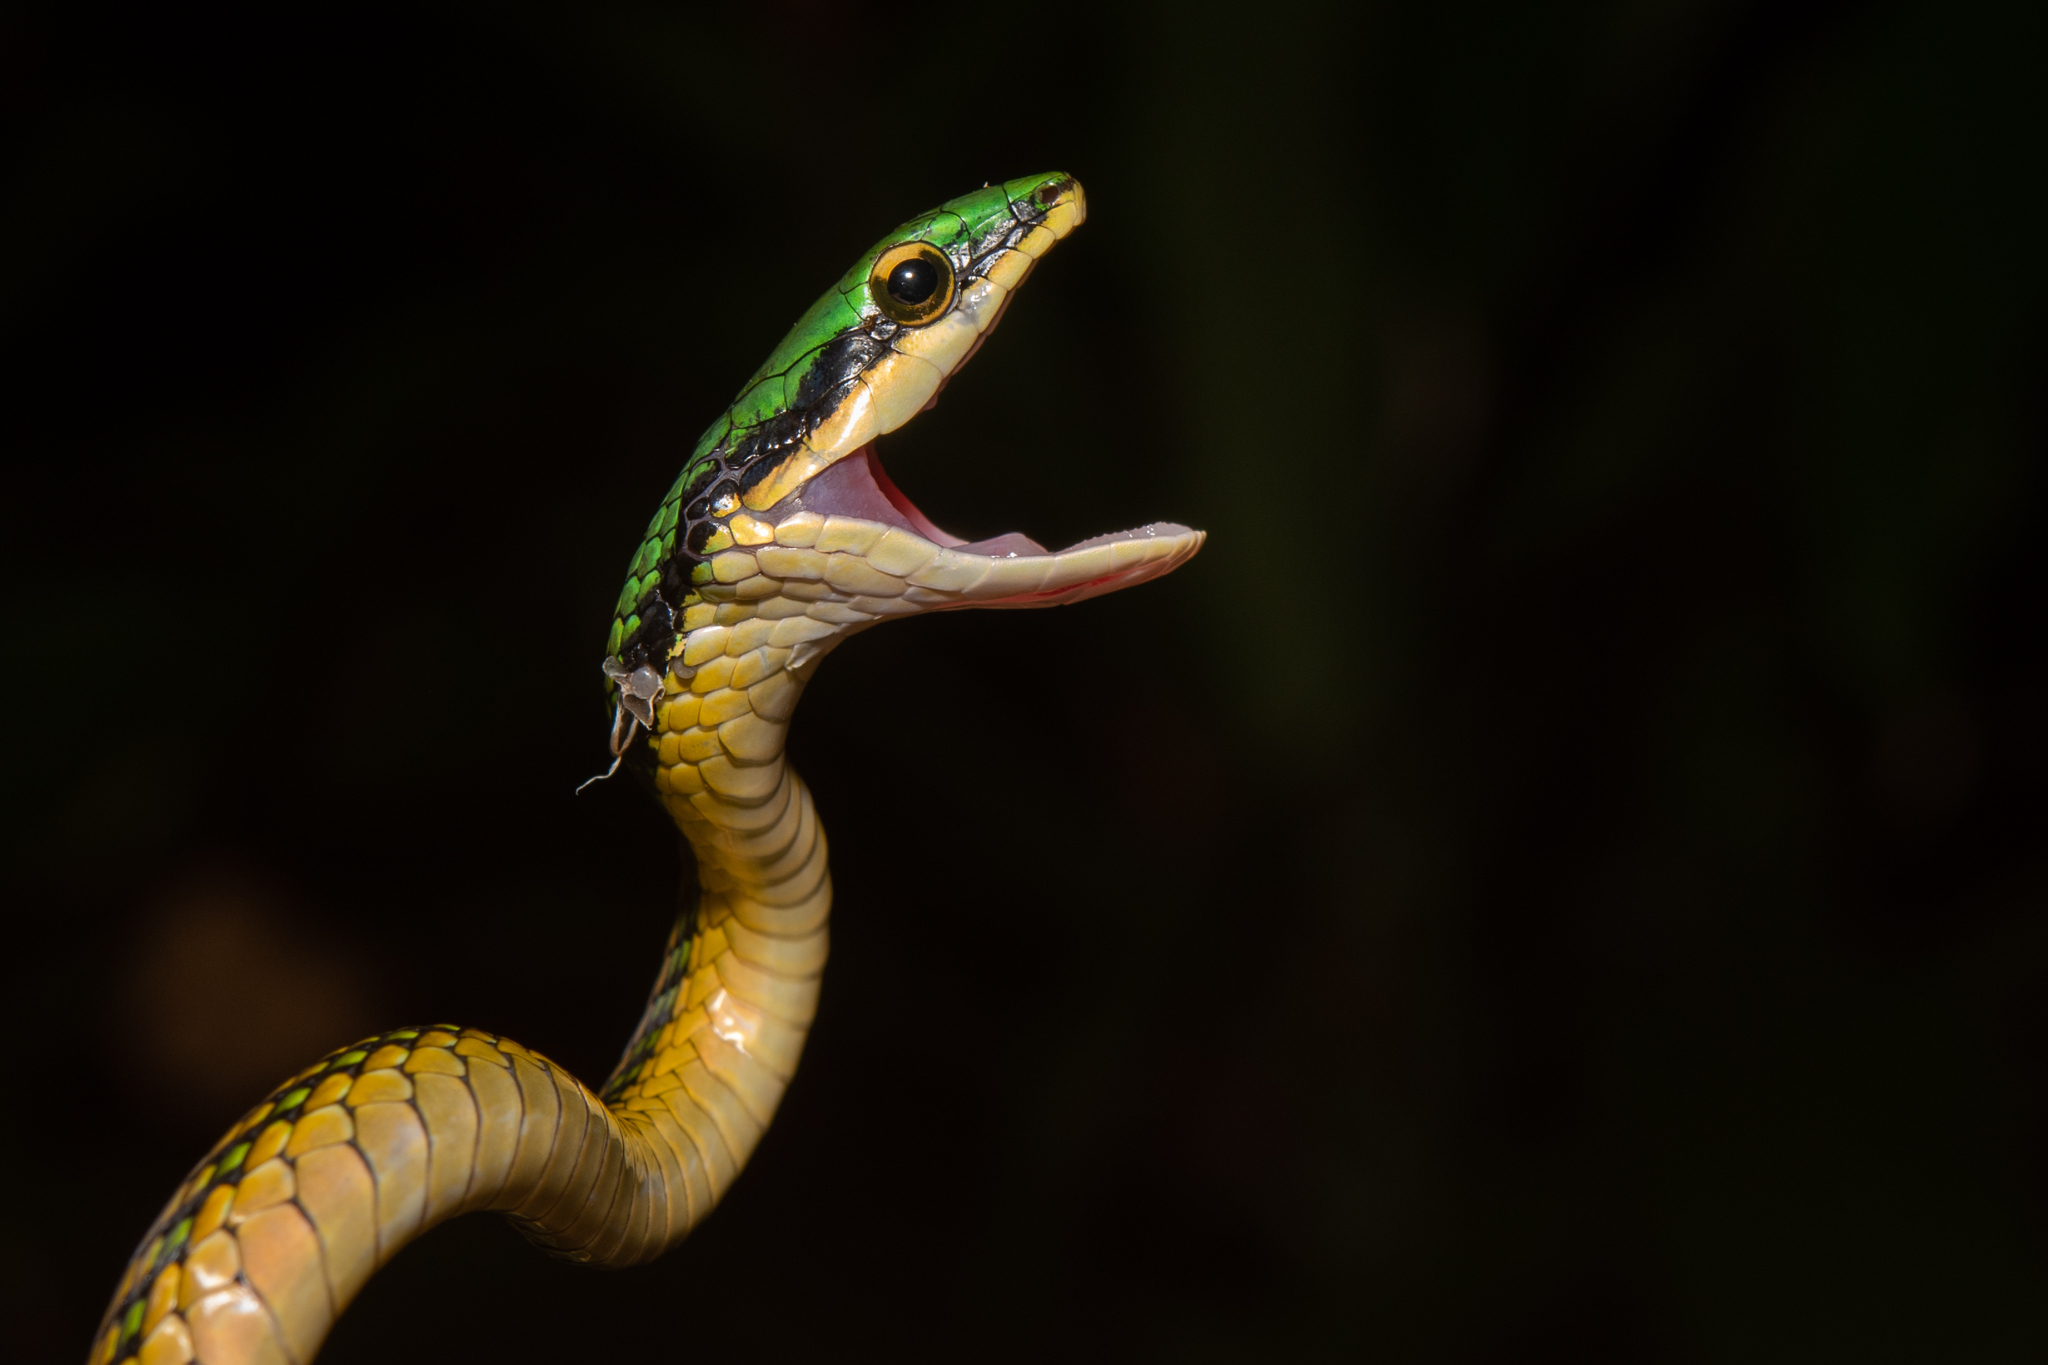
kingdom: Animalia
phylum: Chordata
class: Squamata
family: Colubridae
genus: Leptophis
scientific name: Leptophis mexicanus
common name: Mexican parrot snake
